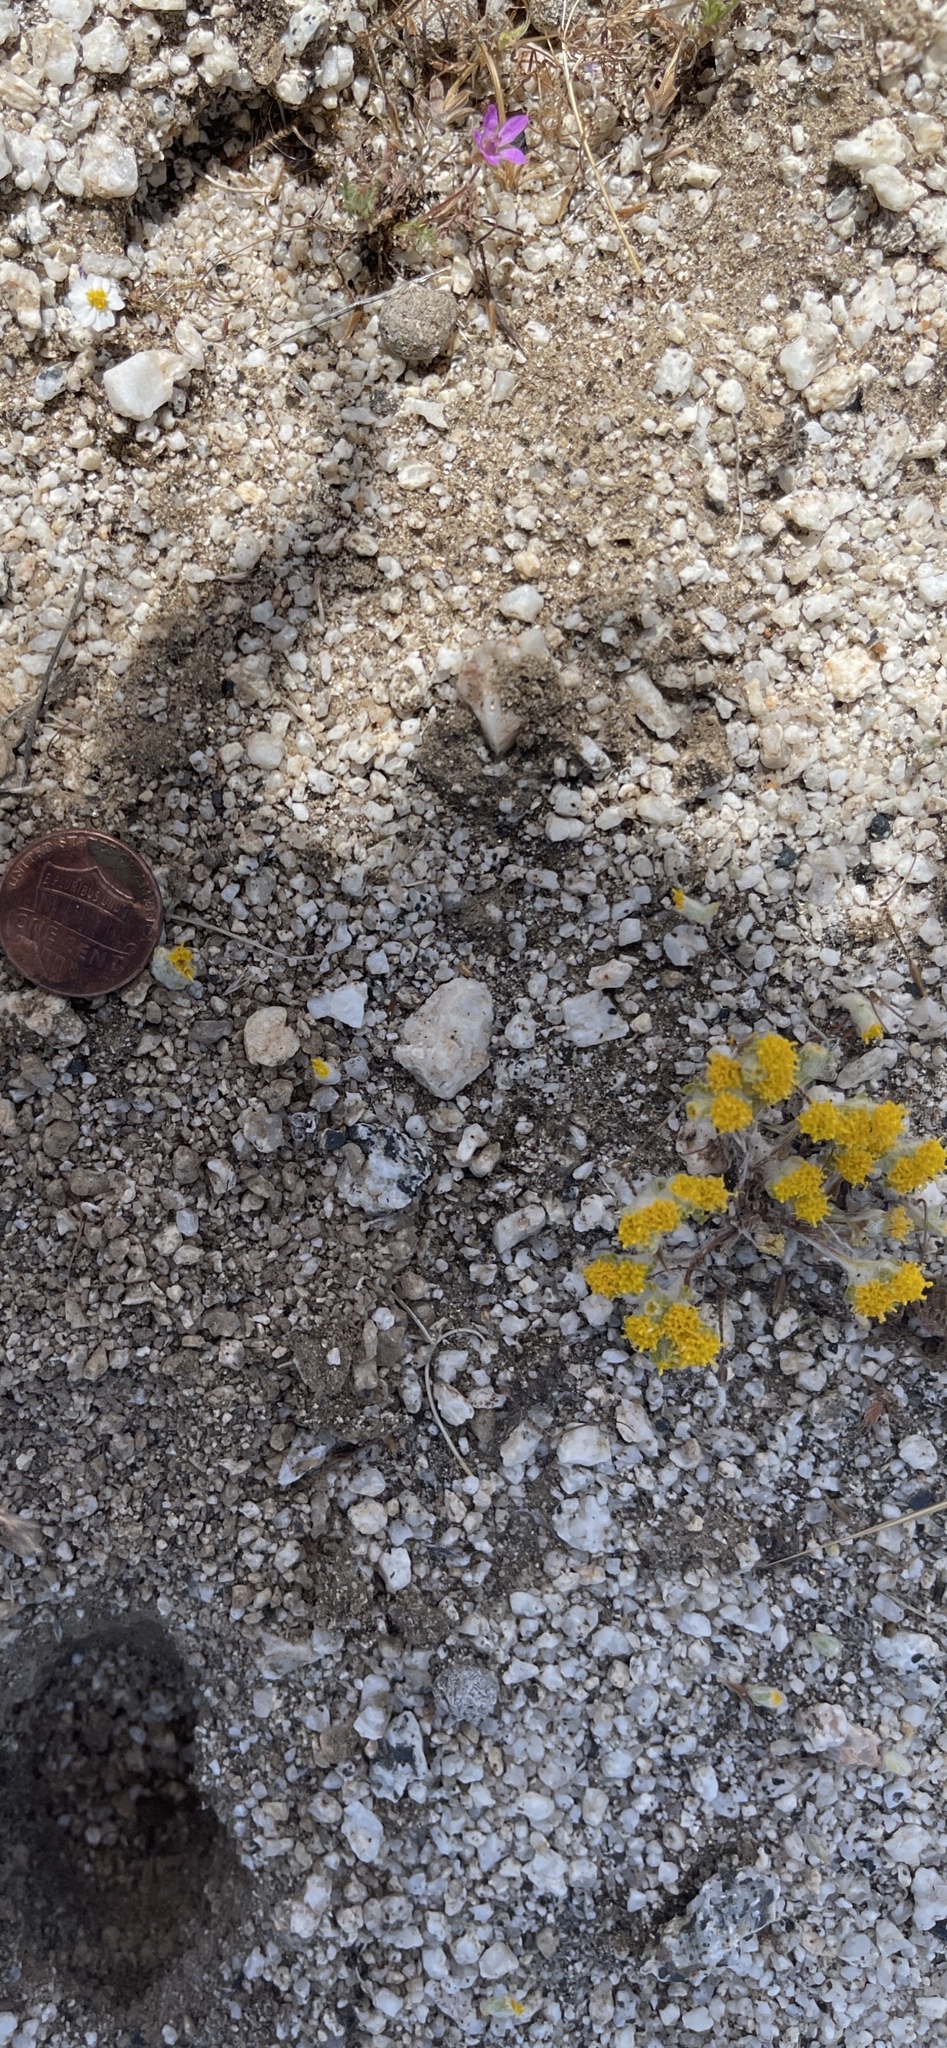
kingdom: Plantae
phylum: Tracheophyta
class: Magnoliopsida
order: Asterales
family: Asteraceae
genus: Eriophyllum
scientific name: Eriophyllum pringlei
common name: Pringle's woolly-sunflower
